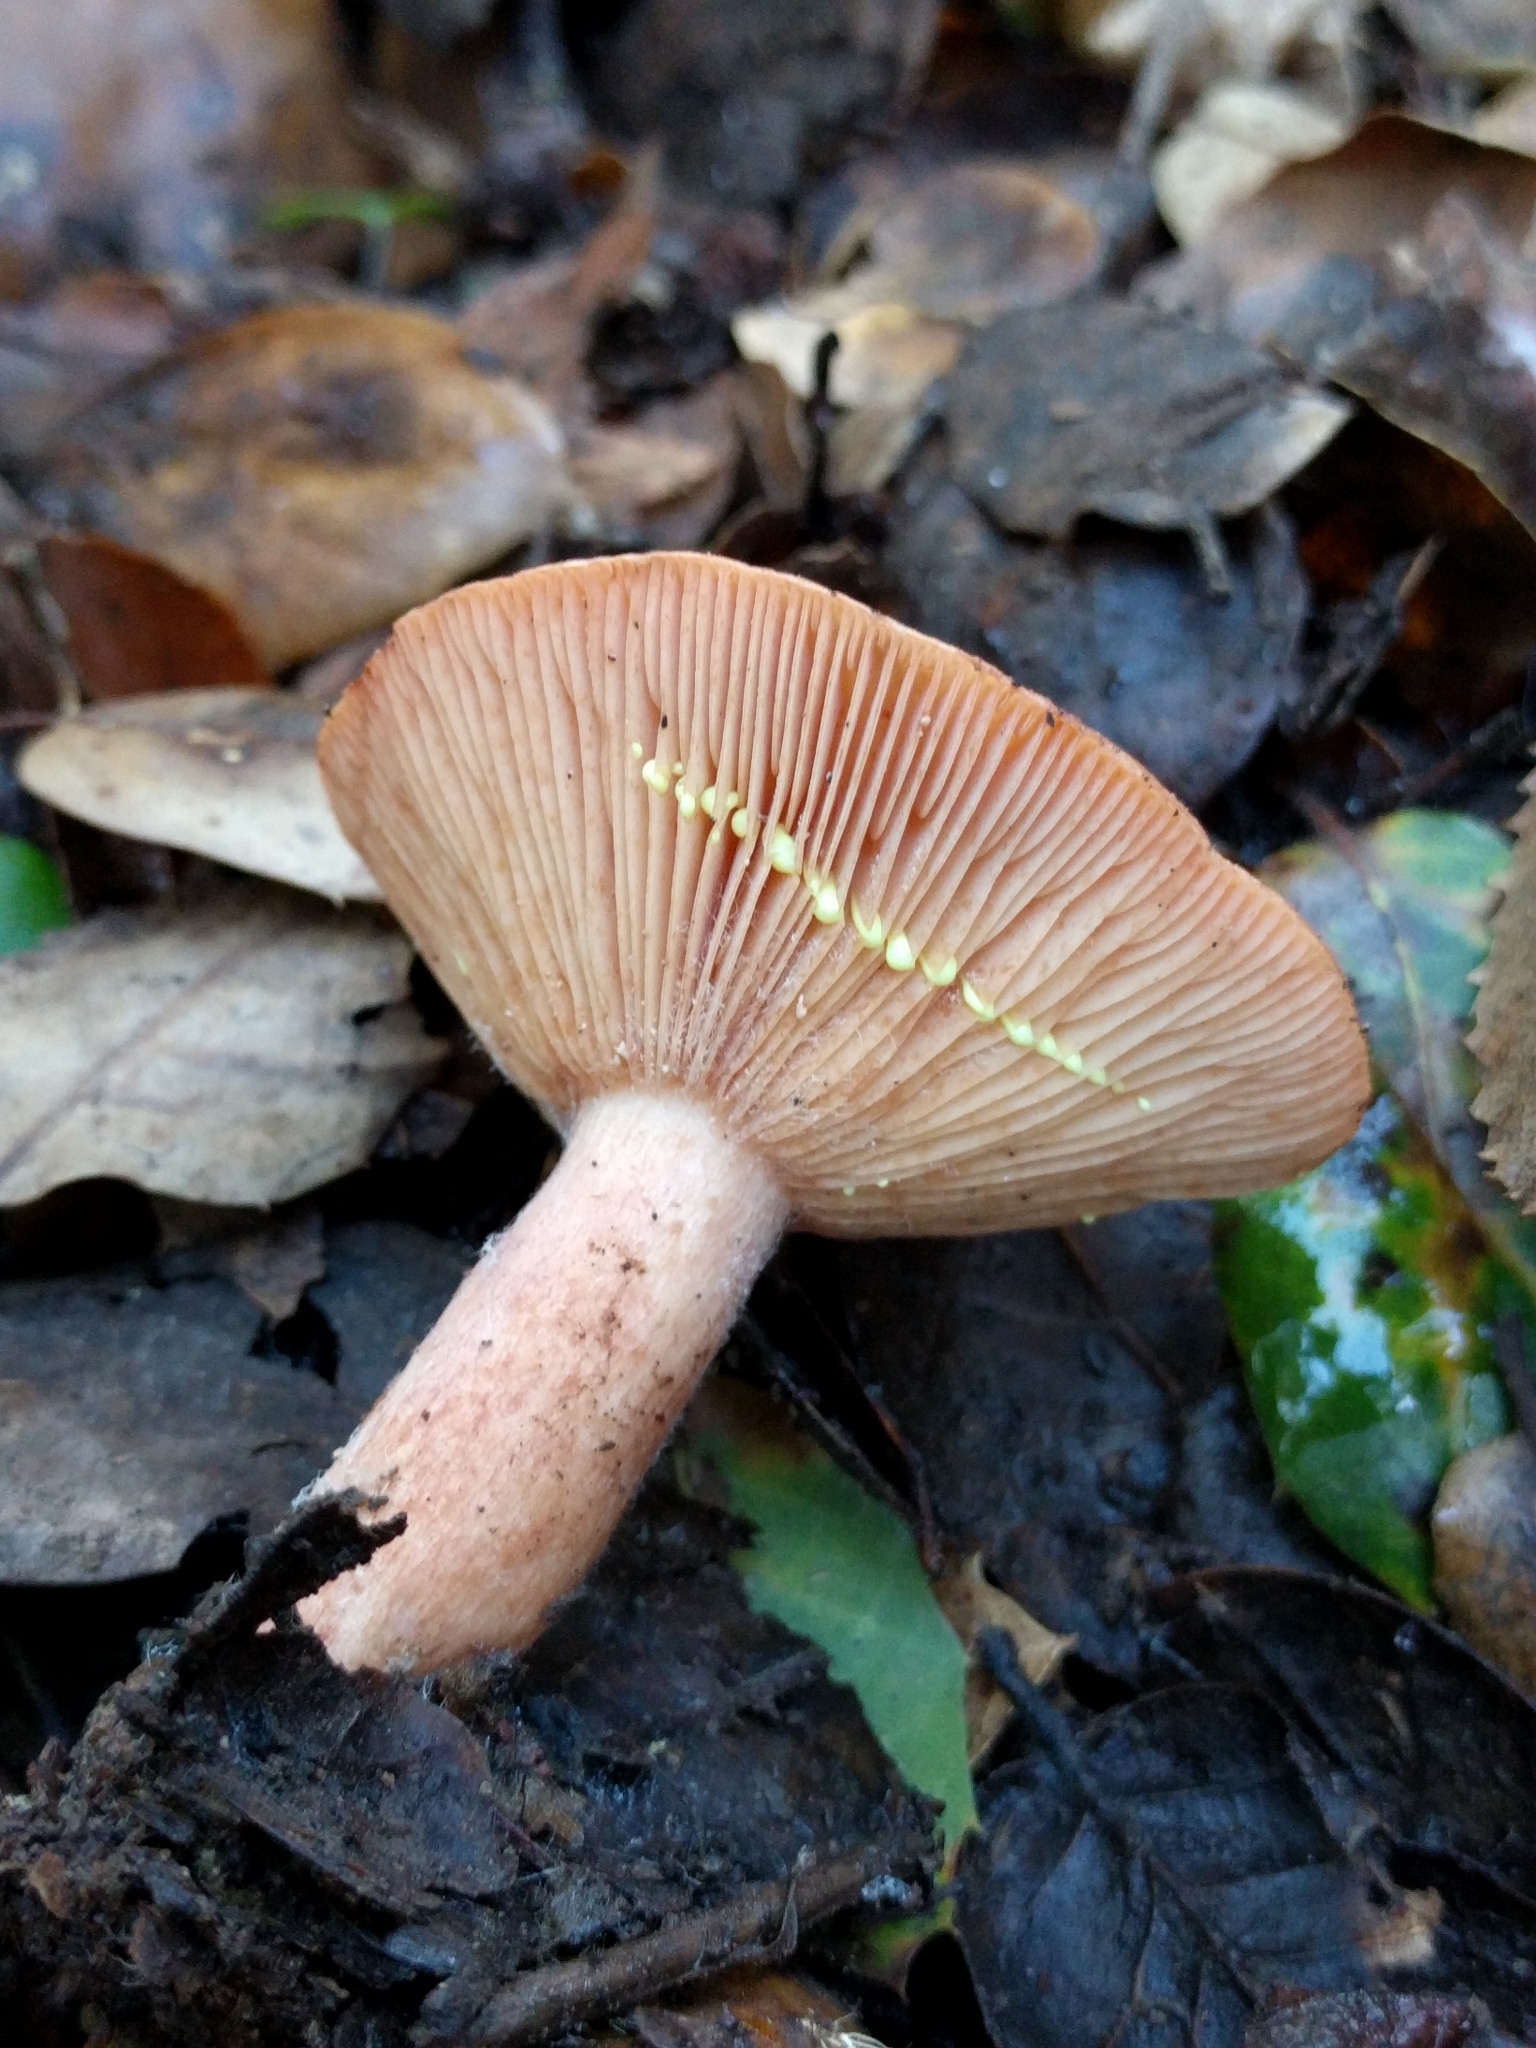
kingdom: Fungi
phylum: Basidiomycota
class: Agaricomycetes
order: Russulales
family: Russulaceae
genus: Lactarius
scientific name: Lactarius xanthogalactus
